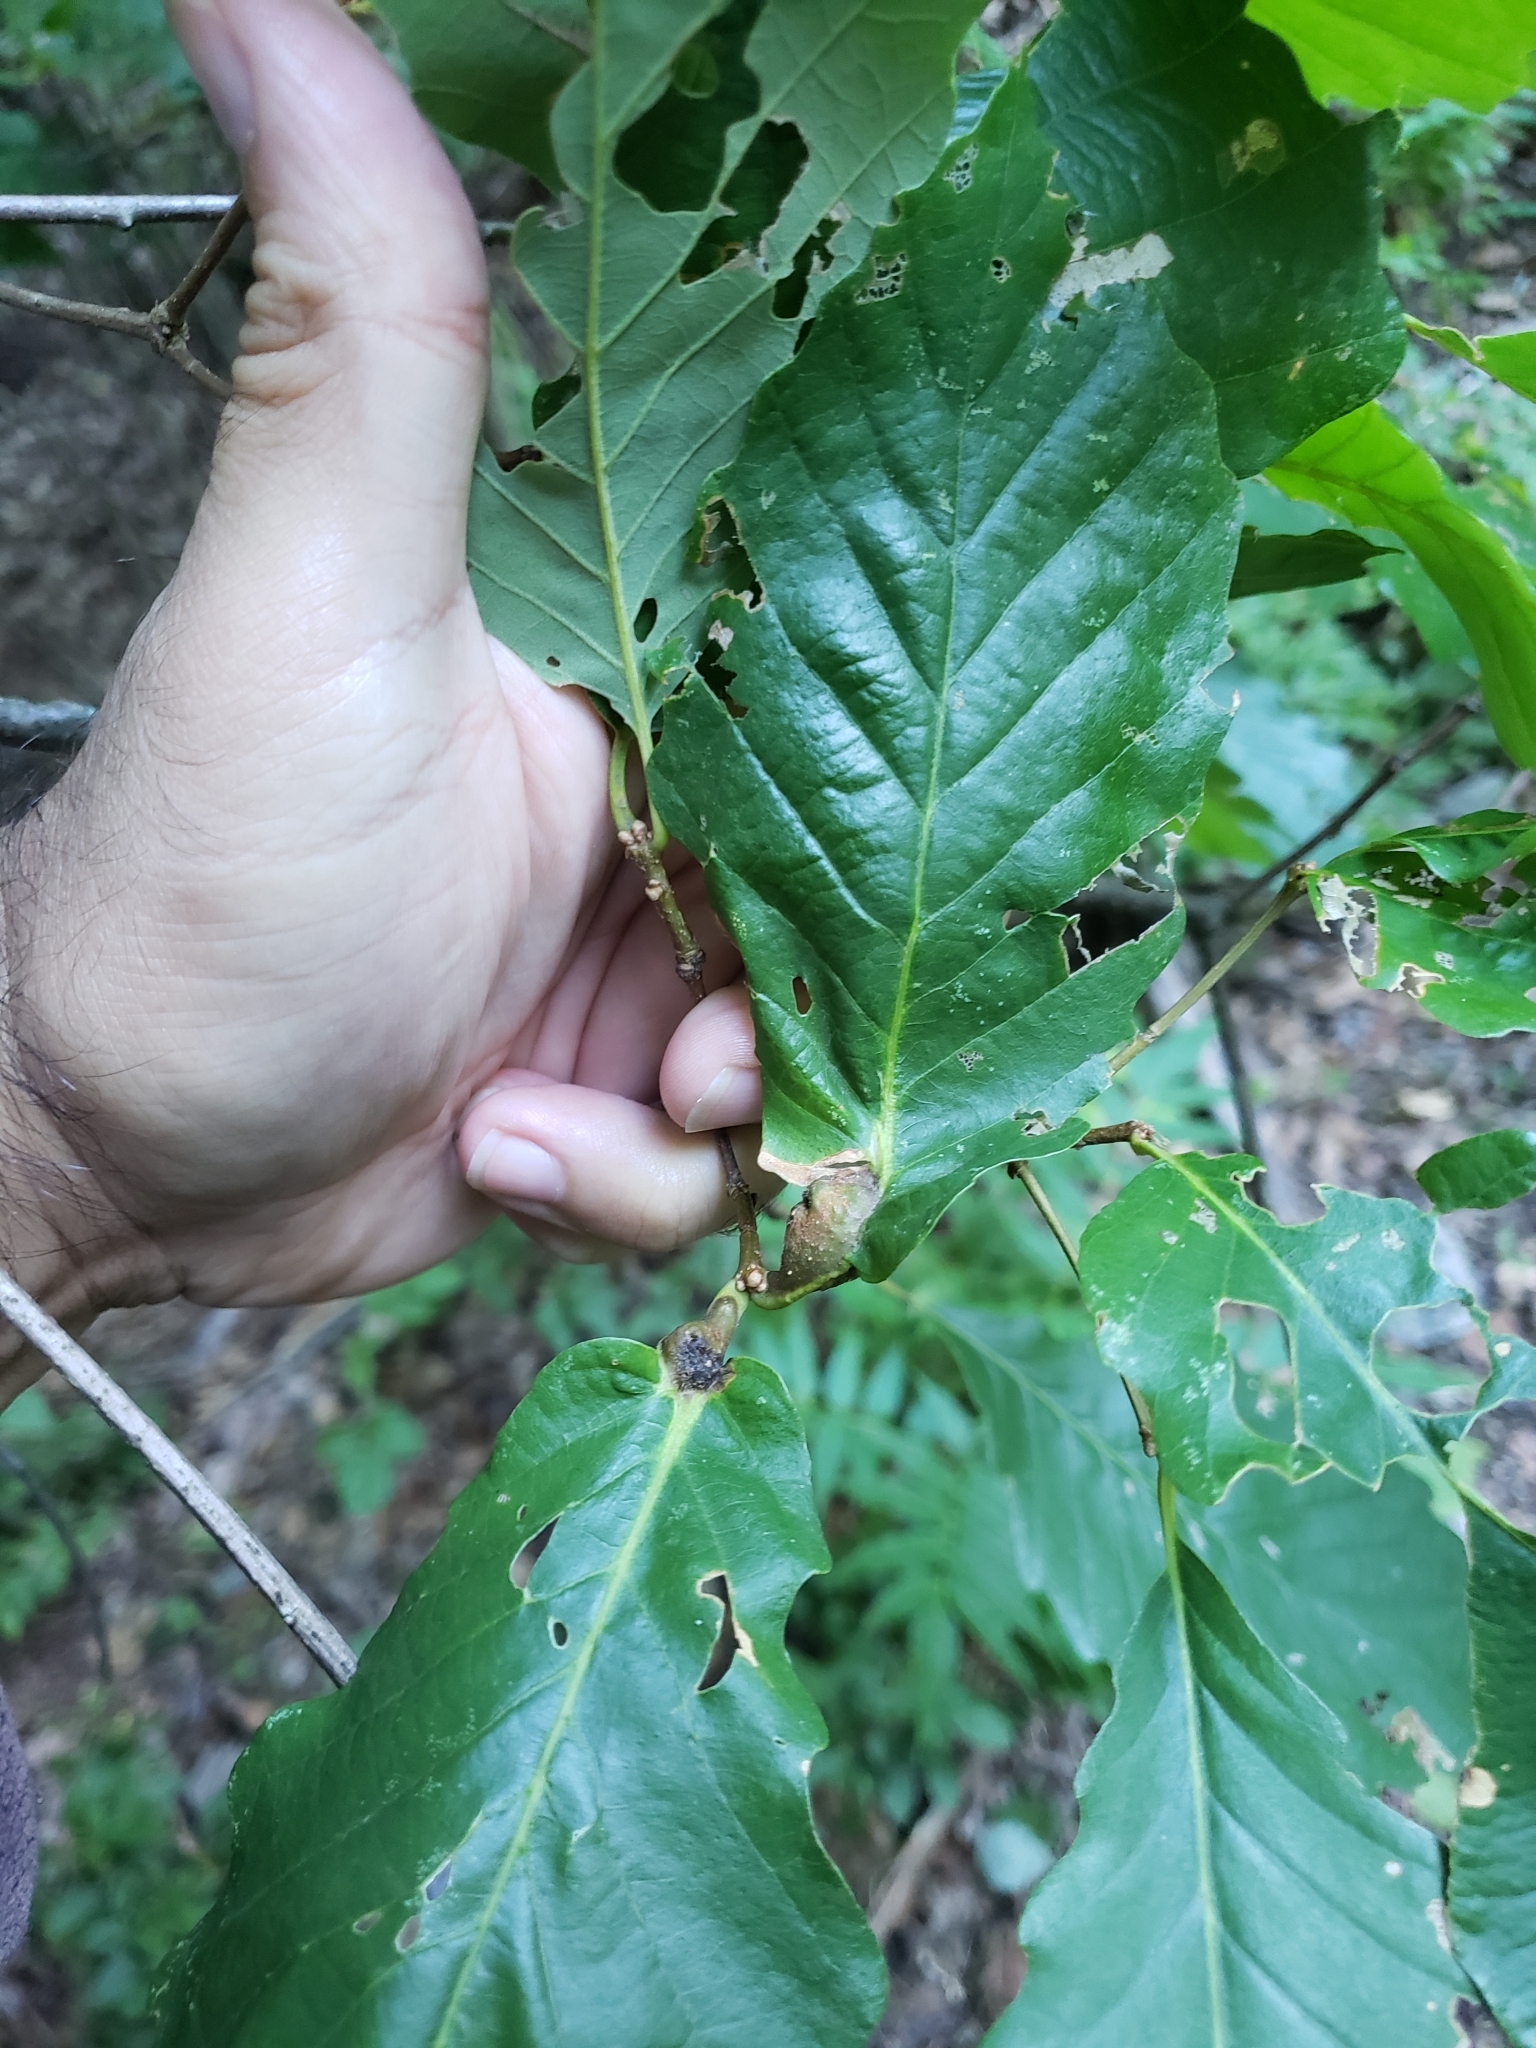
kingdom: Animalia
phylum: Arthropoda
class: Insecta
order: Hymenoptera
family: Cynipidae
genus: Andricus
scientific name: Andricus
